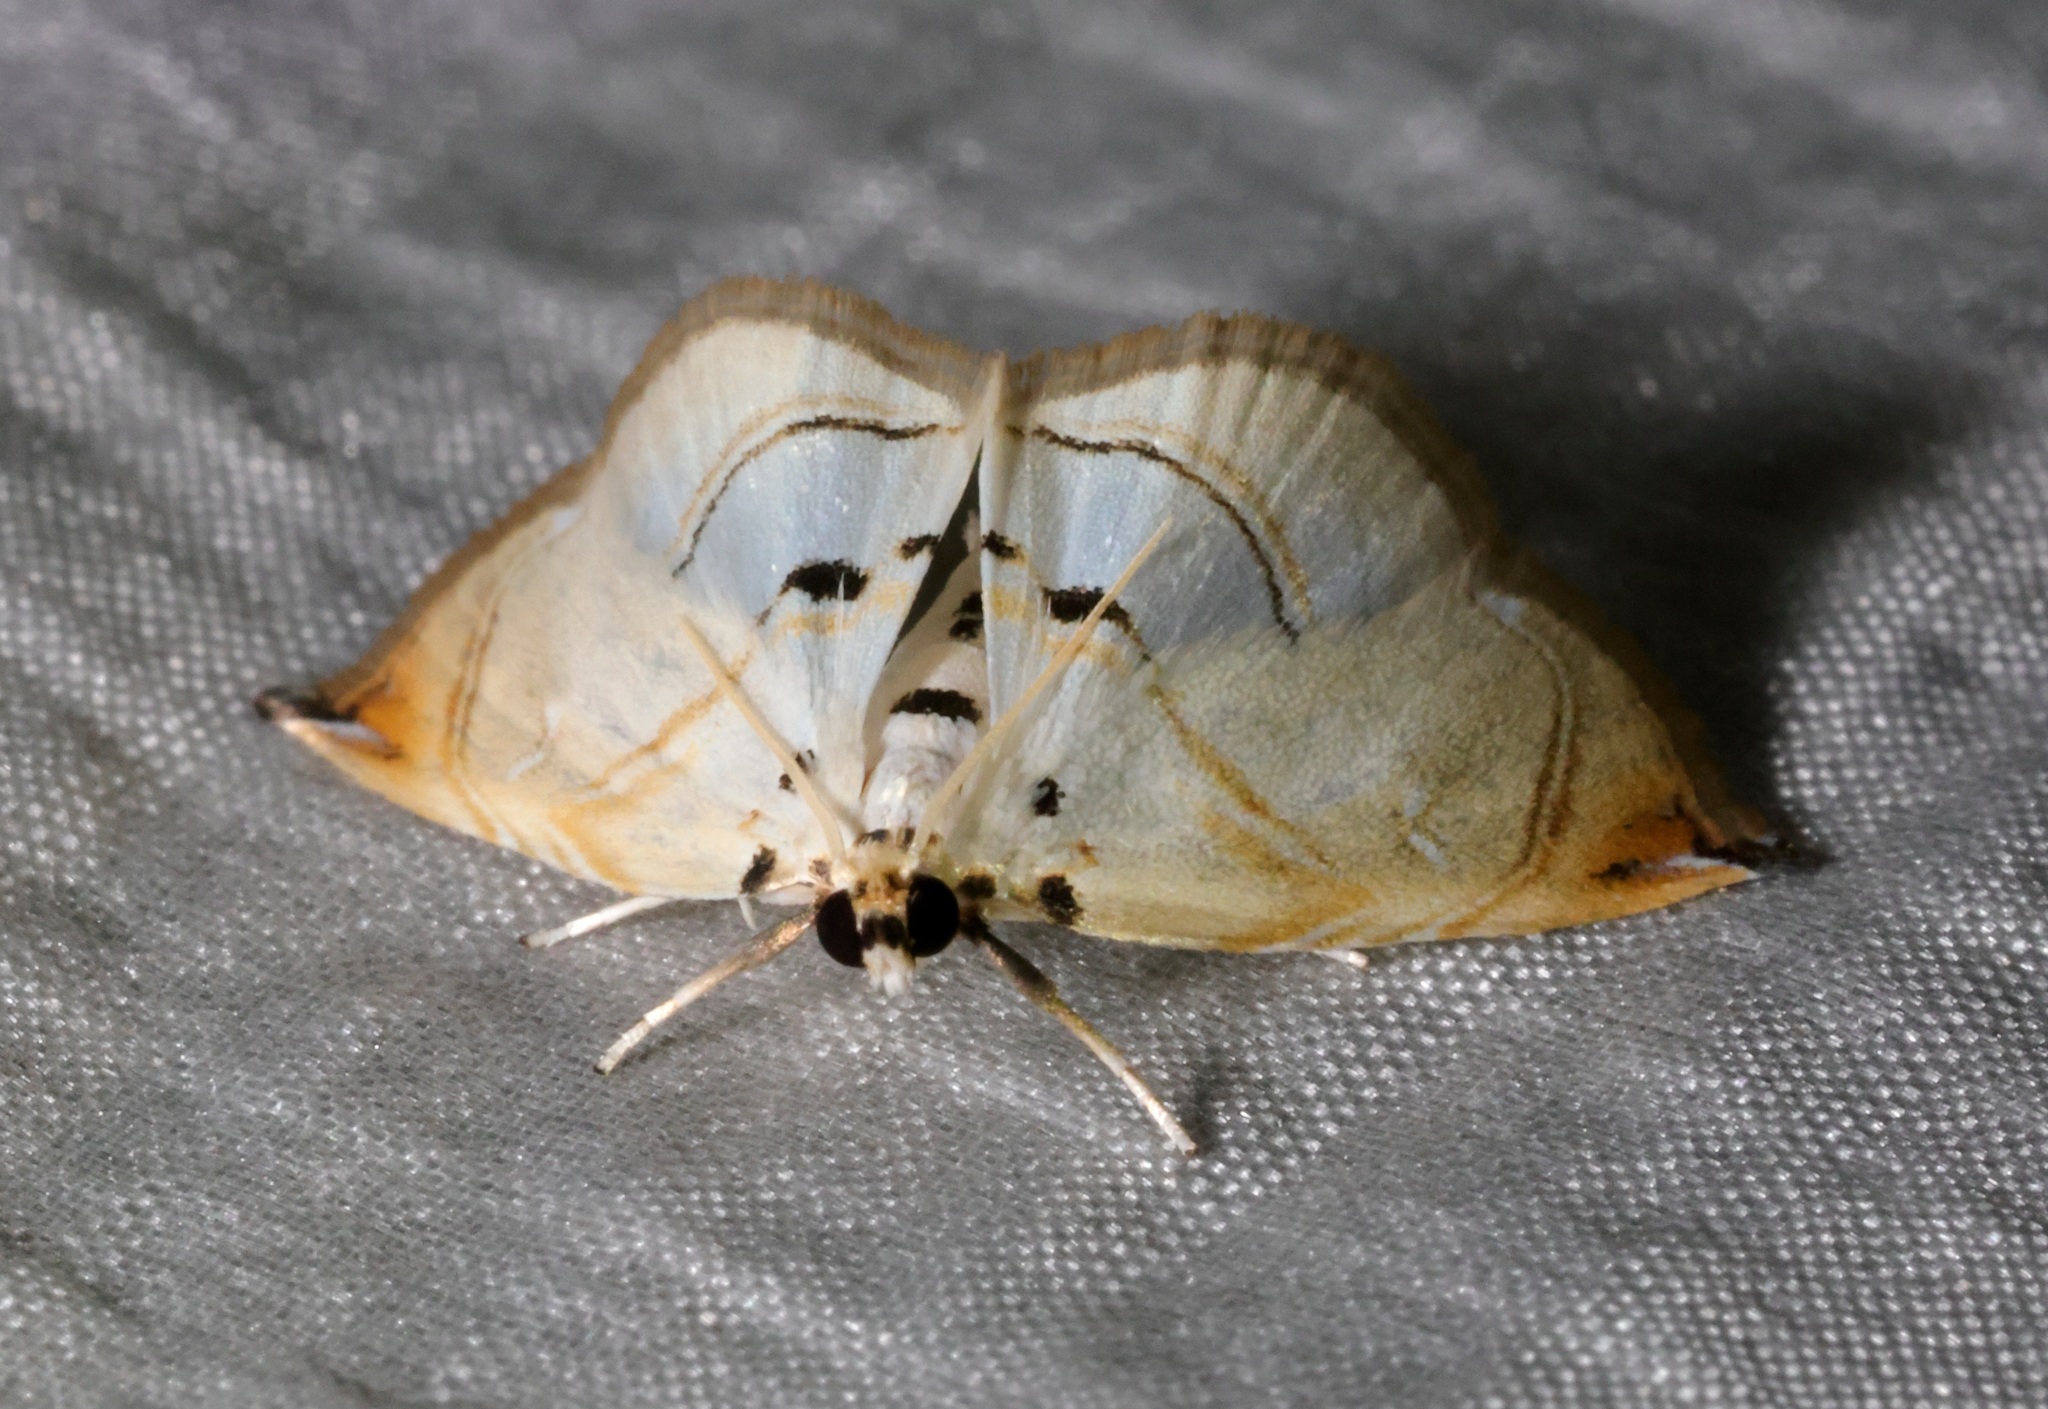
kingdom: Animalia
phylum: Arthropoda
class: Insecta
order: Lepidoptera
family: Crambidae
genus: Trichophysetis
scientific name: Trichophysetis hampsoni
